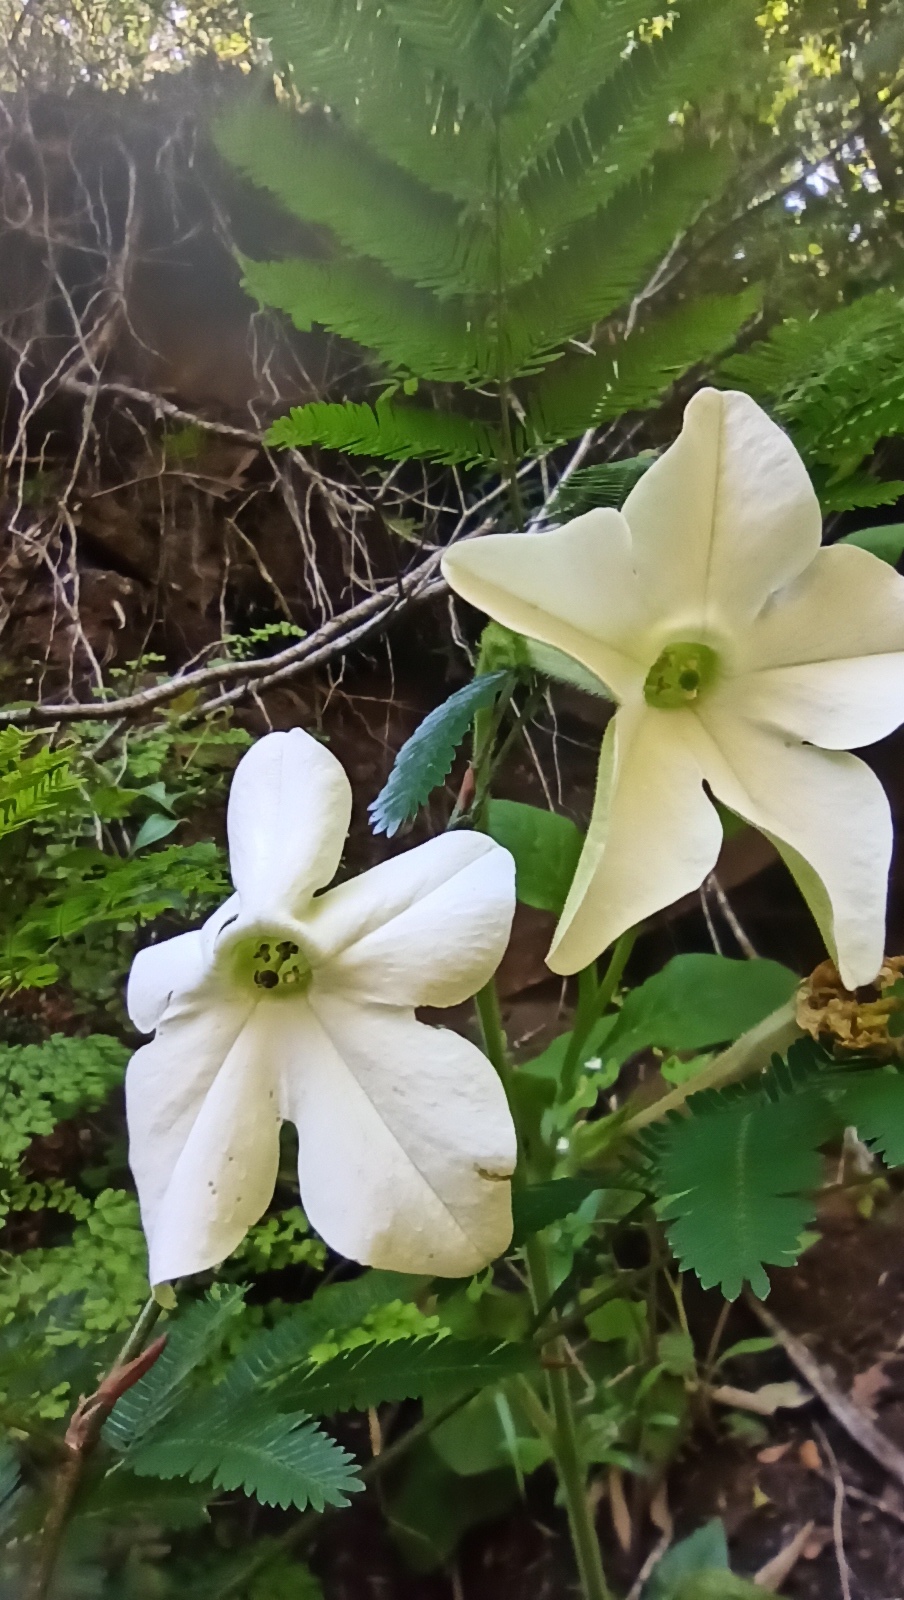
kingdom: Plantae
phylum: Tracheophyta
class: Magnoliopsida
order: Solanales
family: Solanaceae
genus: Nicotiana
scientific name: Nicotiana alata
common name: Jasmine tobacco
